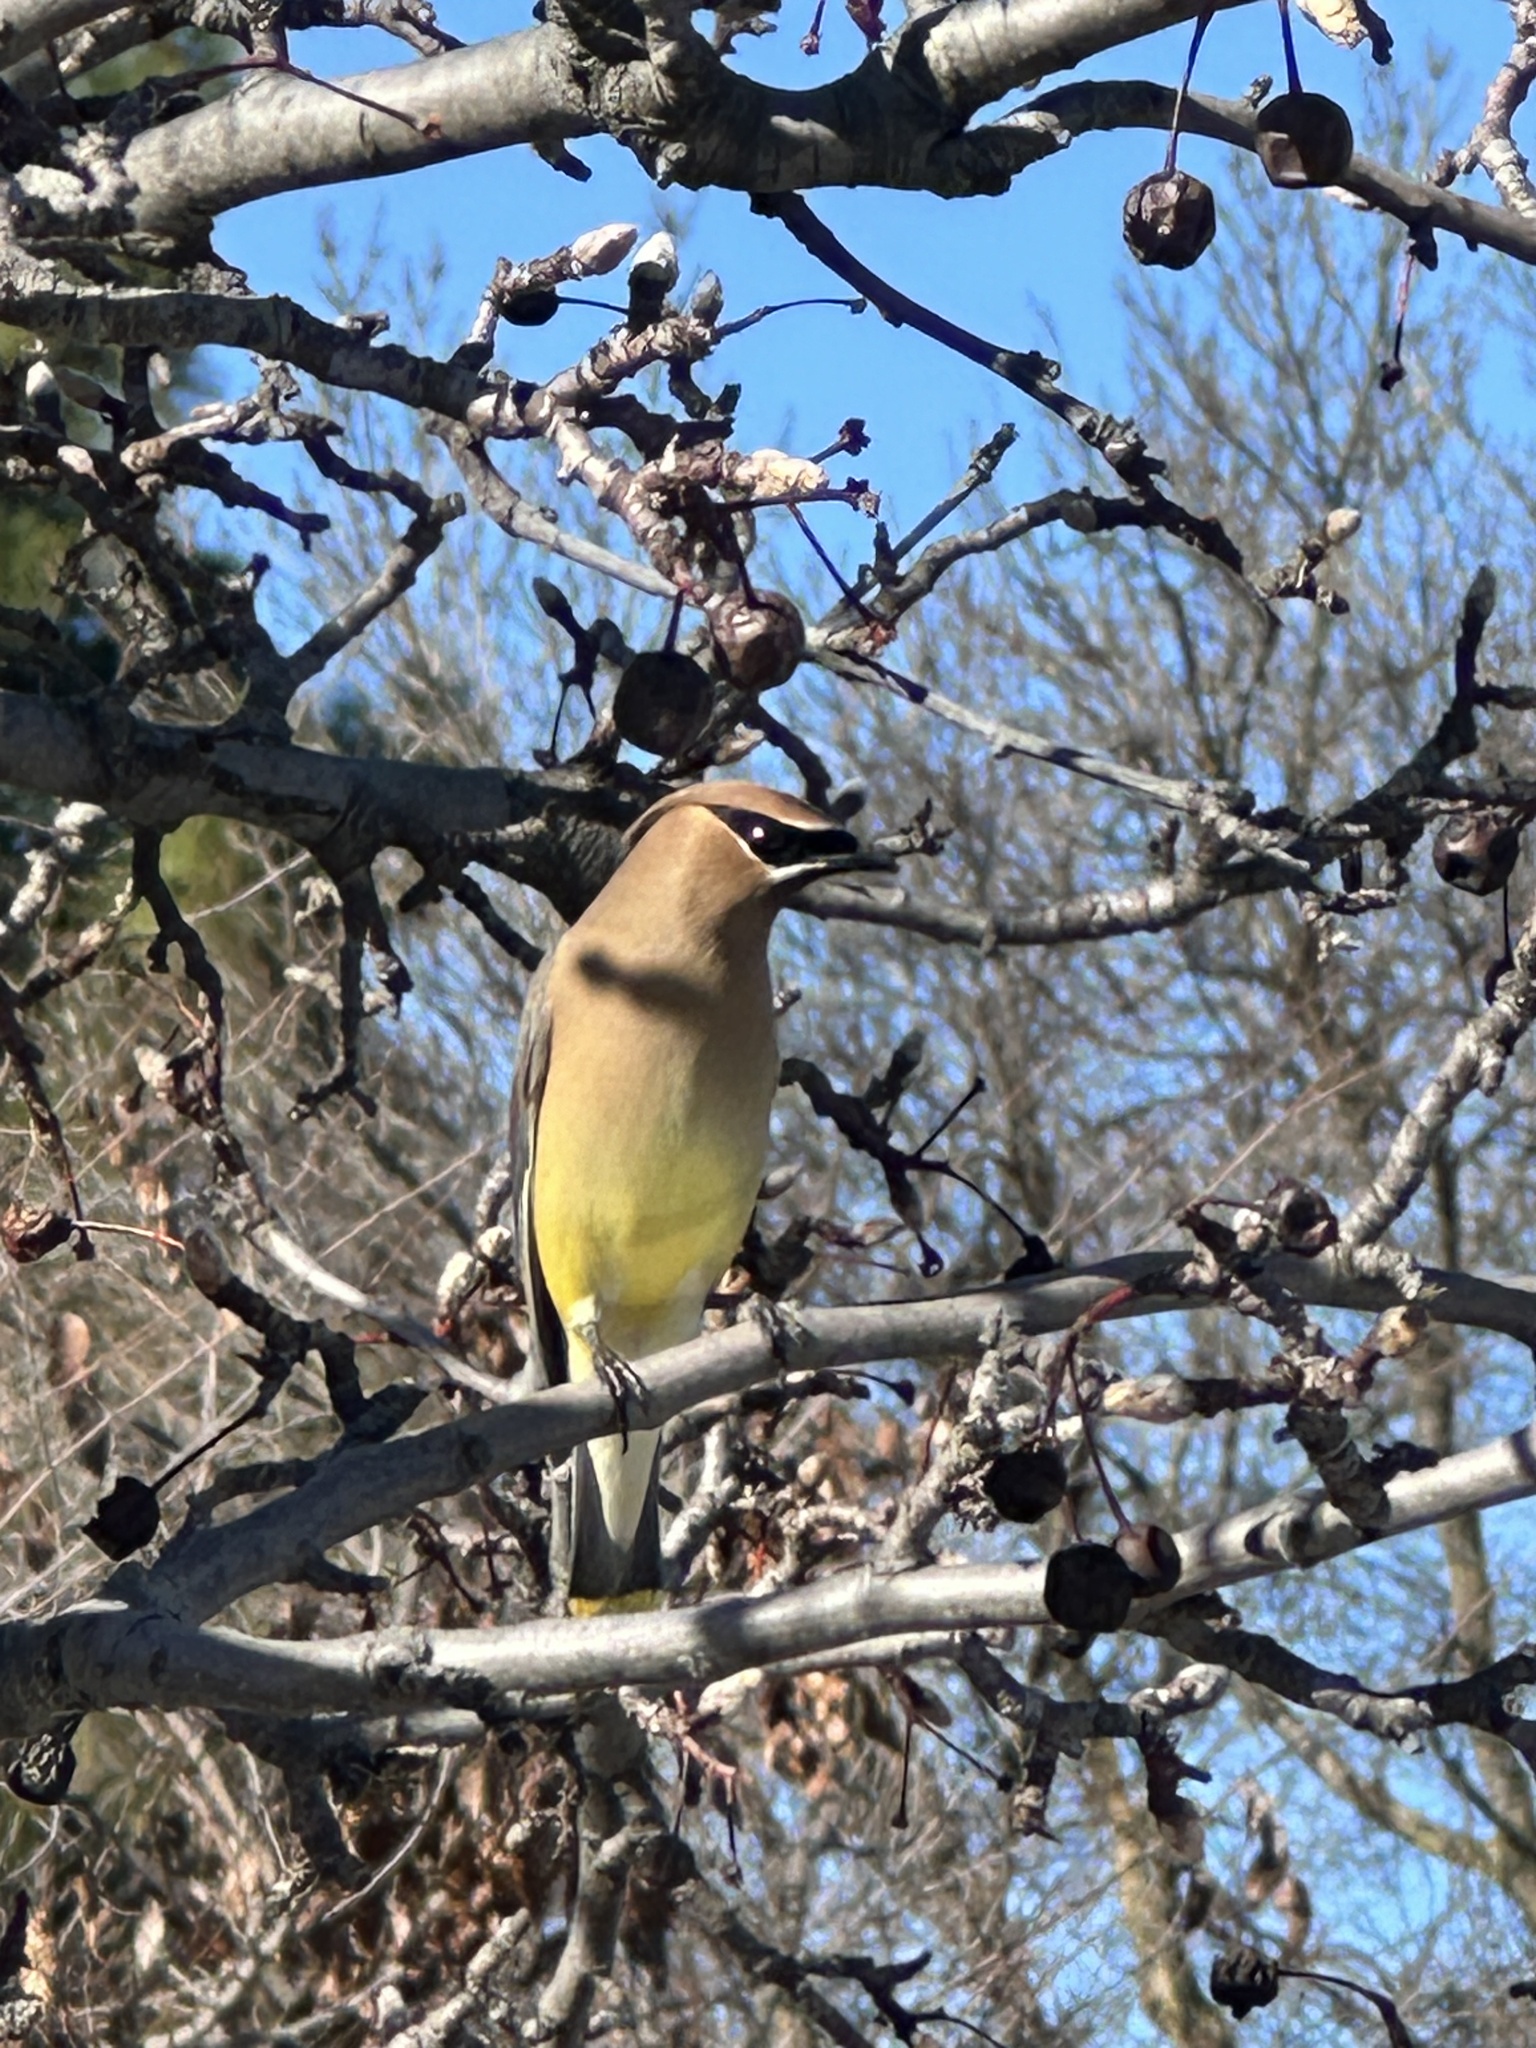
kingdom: Animalia
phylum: Chordata
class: Aves
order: Passeriformes
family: Bombycillidae
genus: Bombycilla
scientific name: Bombycilla cedrorum
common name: Cedar waxwing
